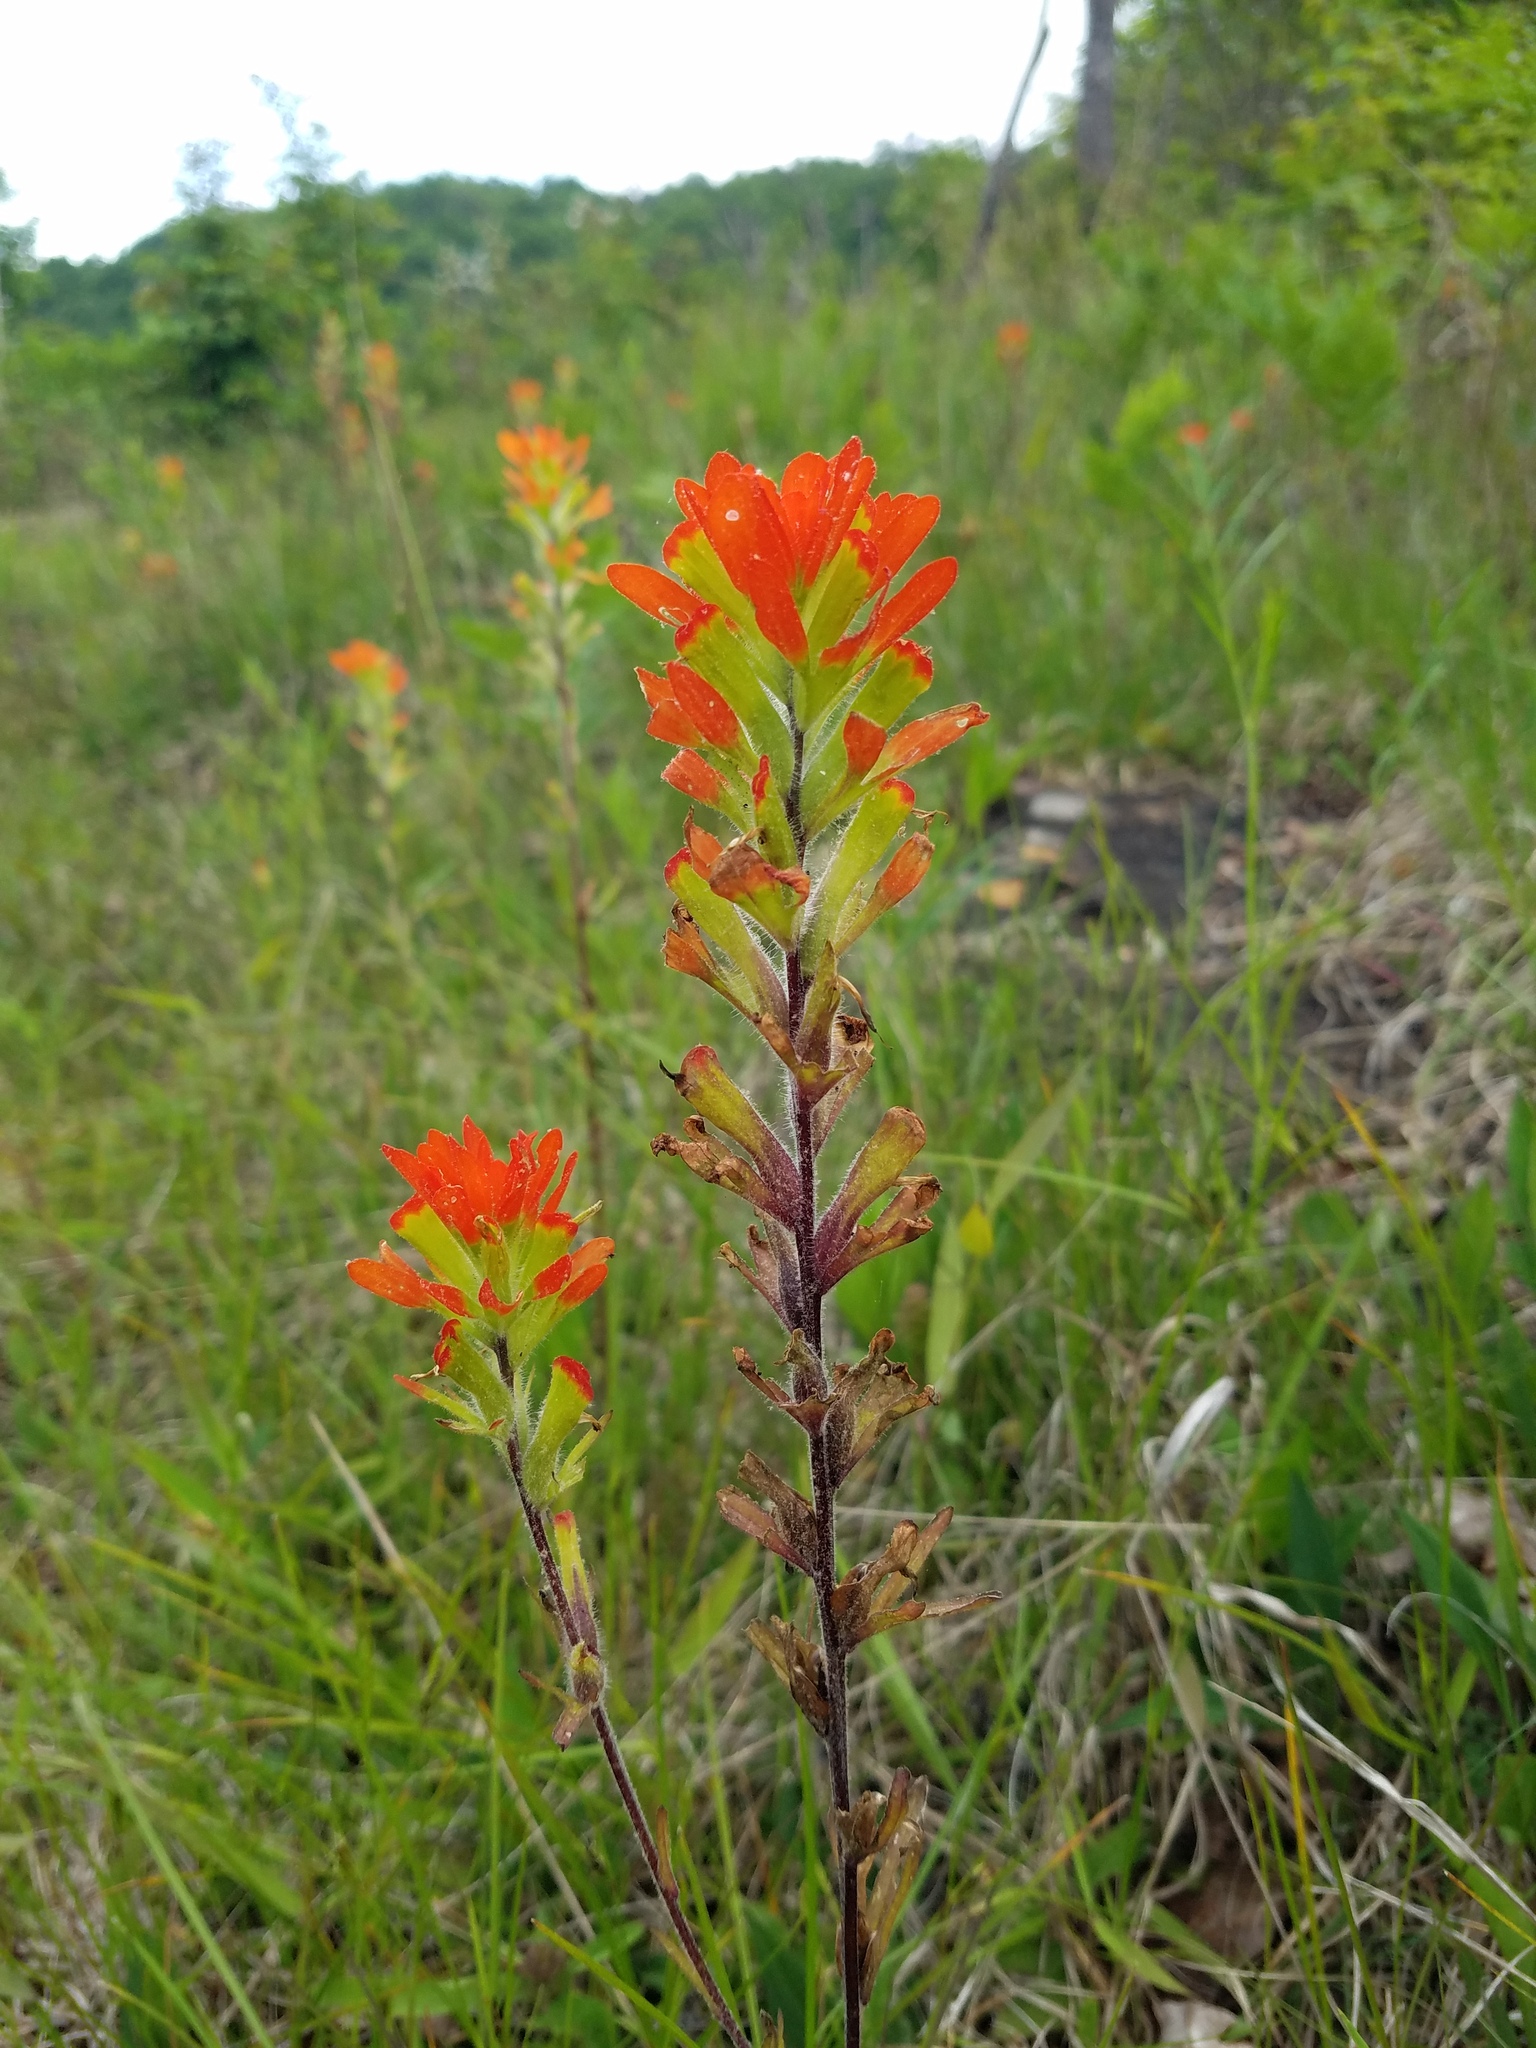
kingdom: Plantae
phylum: Tracheophyta
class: Magnoliopsida
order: Lamiales
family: Orobanchaceae
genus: Castilleja
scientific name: Castilleja coccinea
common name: Scarlet paintbrush
